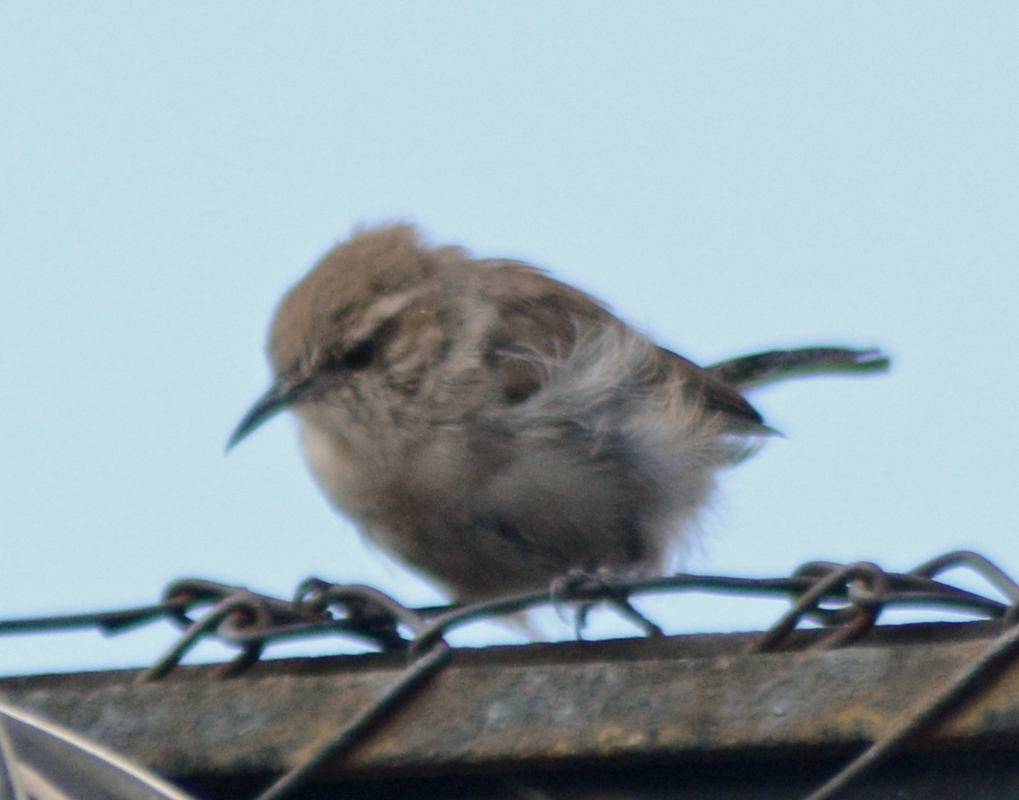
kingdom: Animalia
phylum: Chordata
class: Aves
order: Passeriformes
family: Troglodytidae
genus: Thryomanes
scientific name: Thryomanes bewickii
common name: Bewick's wren
